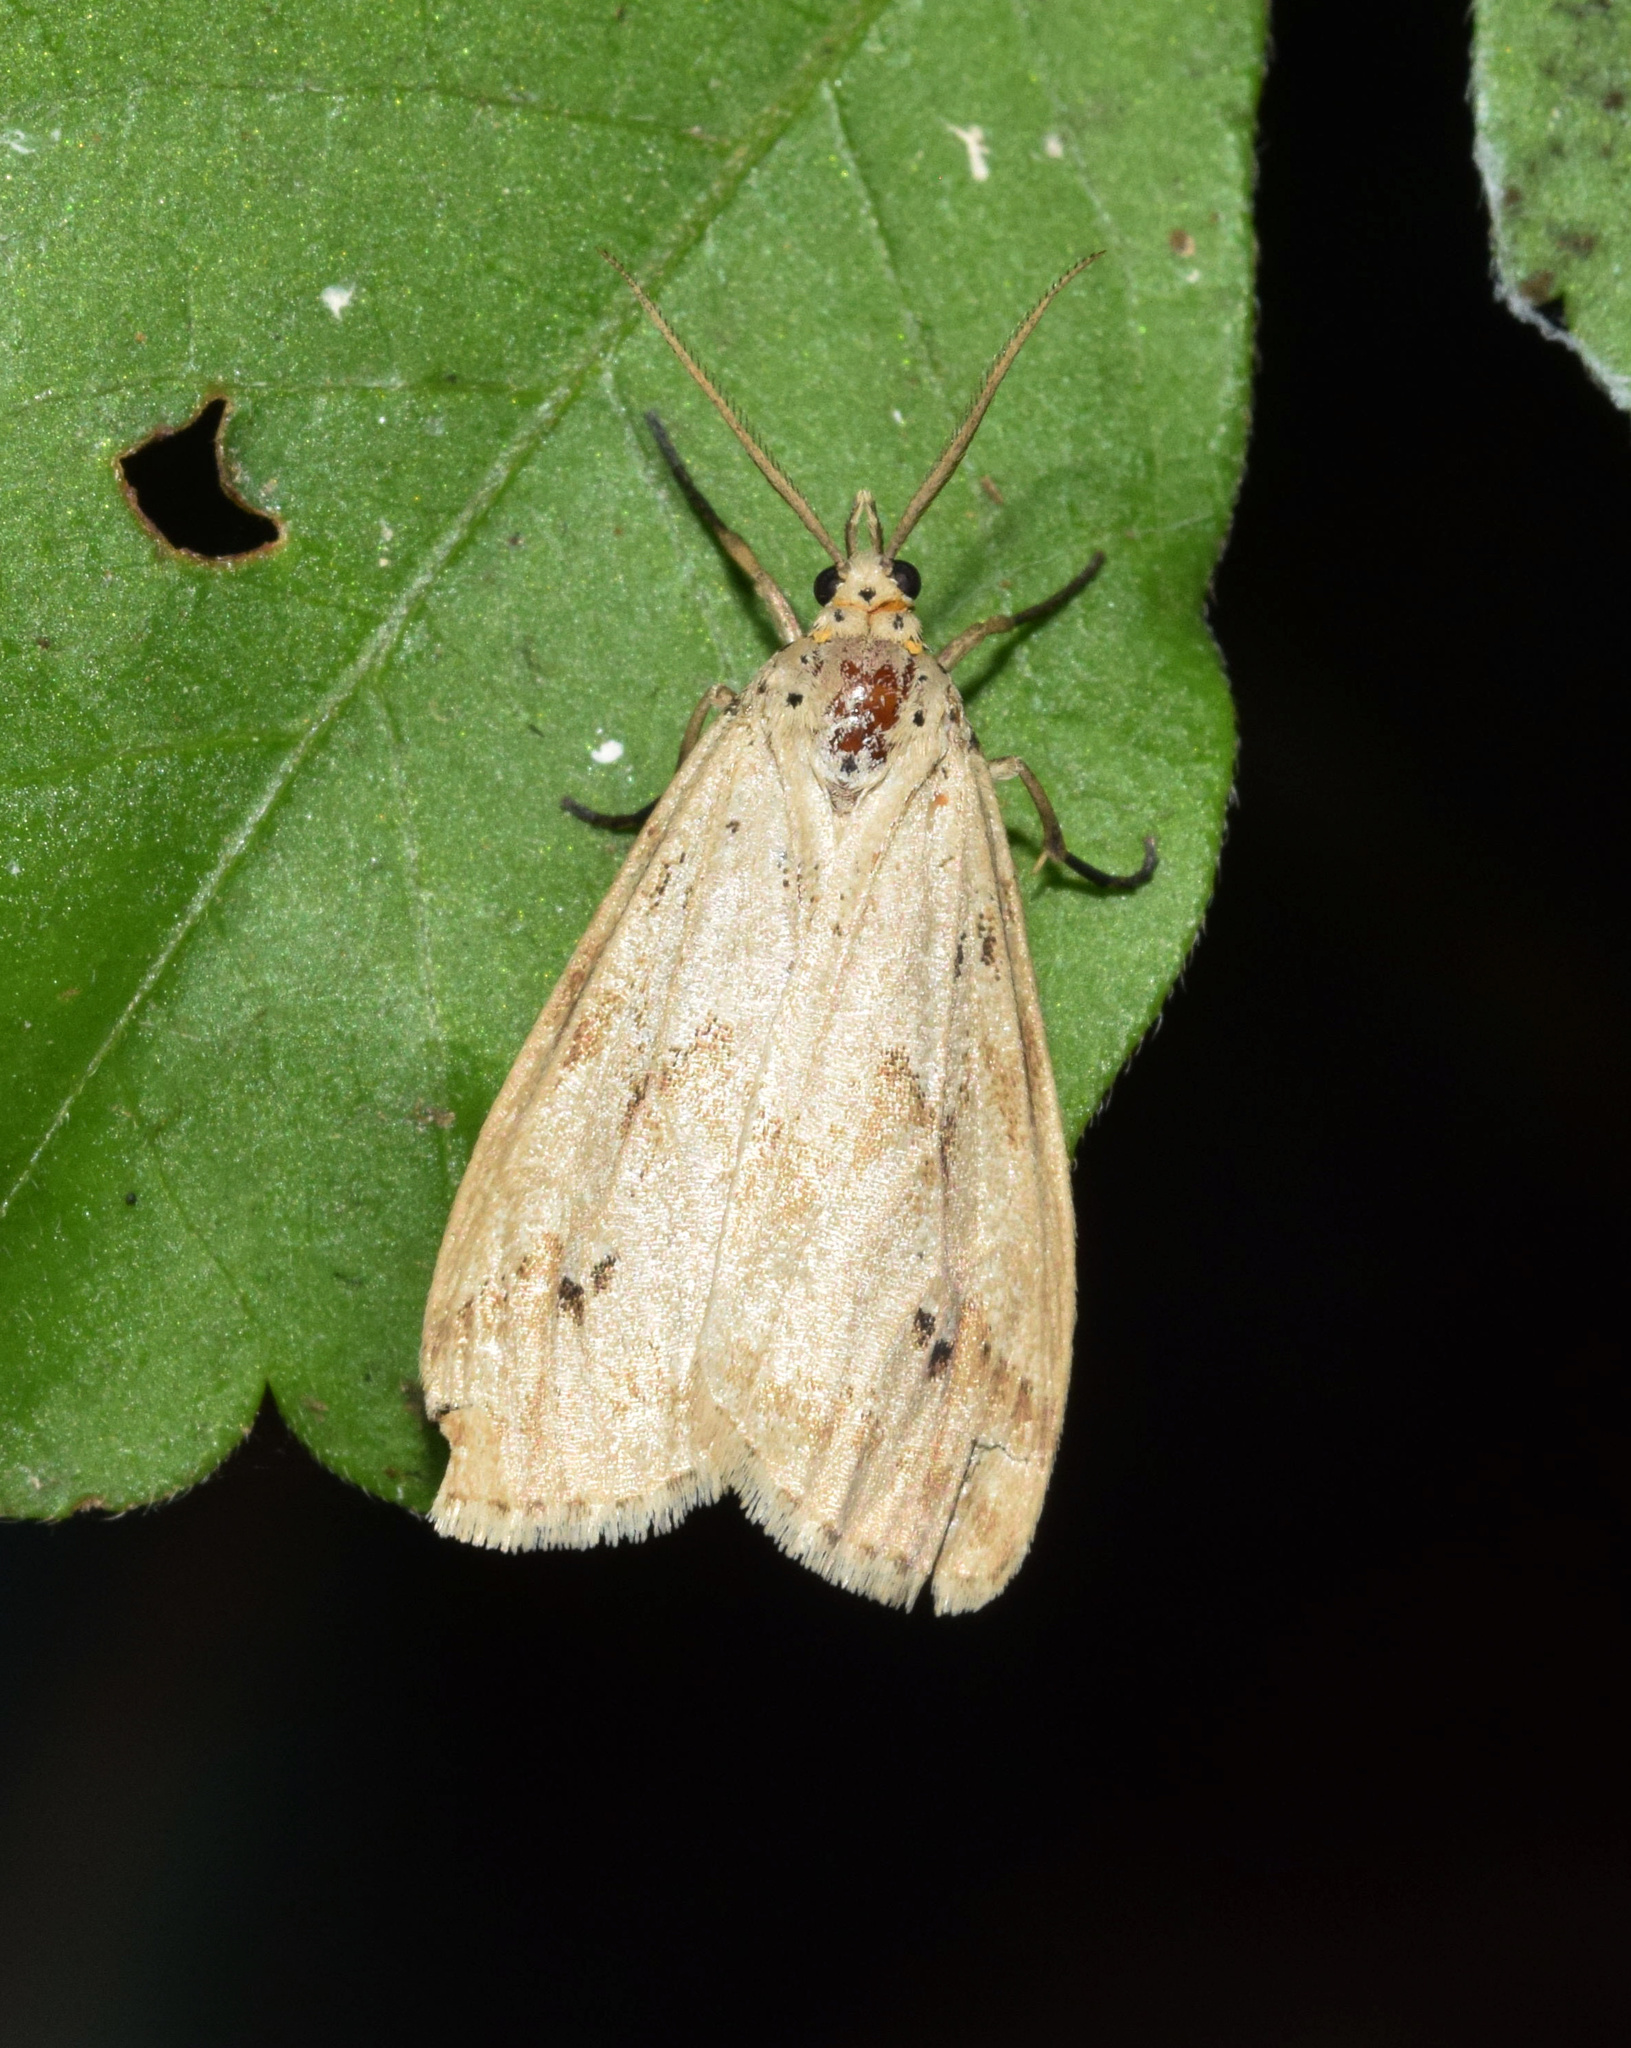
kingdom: Animalia
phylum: Arthropoda
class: Insecta
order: Lepidoptera
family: Erebidae
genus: Galtara
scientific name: Galtara rostrata
